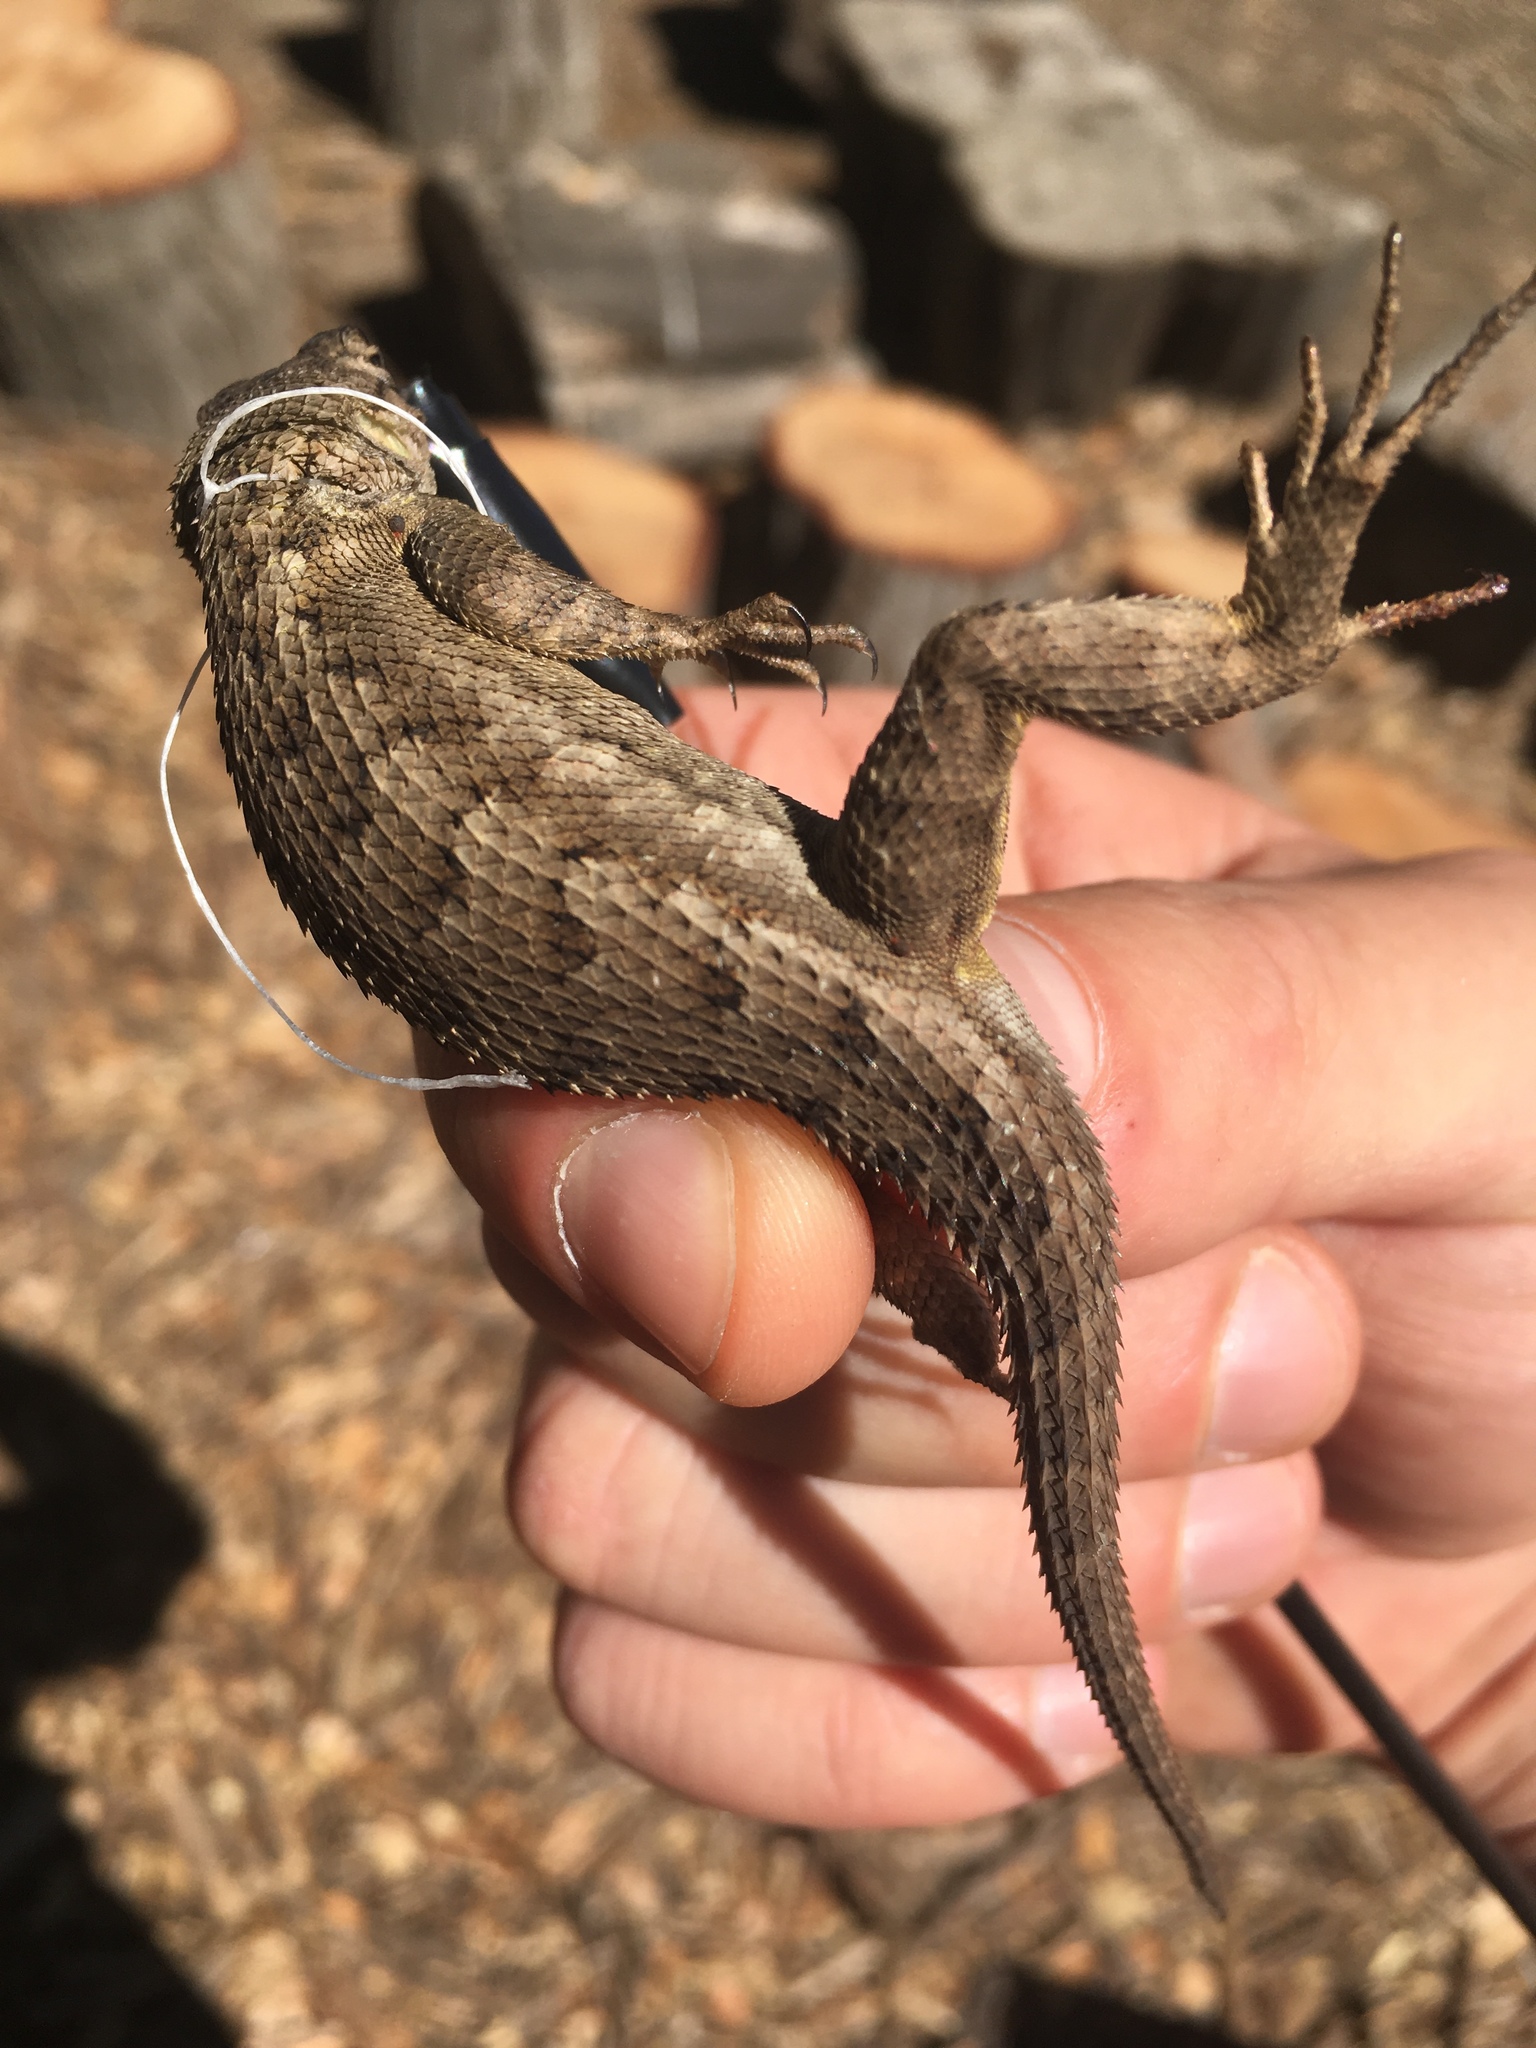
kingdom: Animalia
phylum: Chordata
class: Squamata
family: Phrynosomatidae
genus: Sceloporus
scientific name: Sceloporus occidentalis
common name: Western fence lizard
